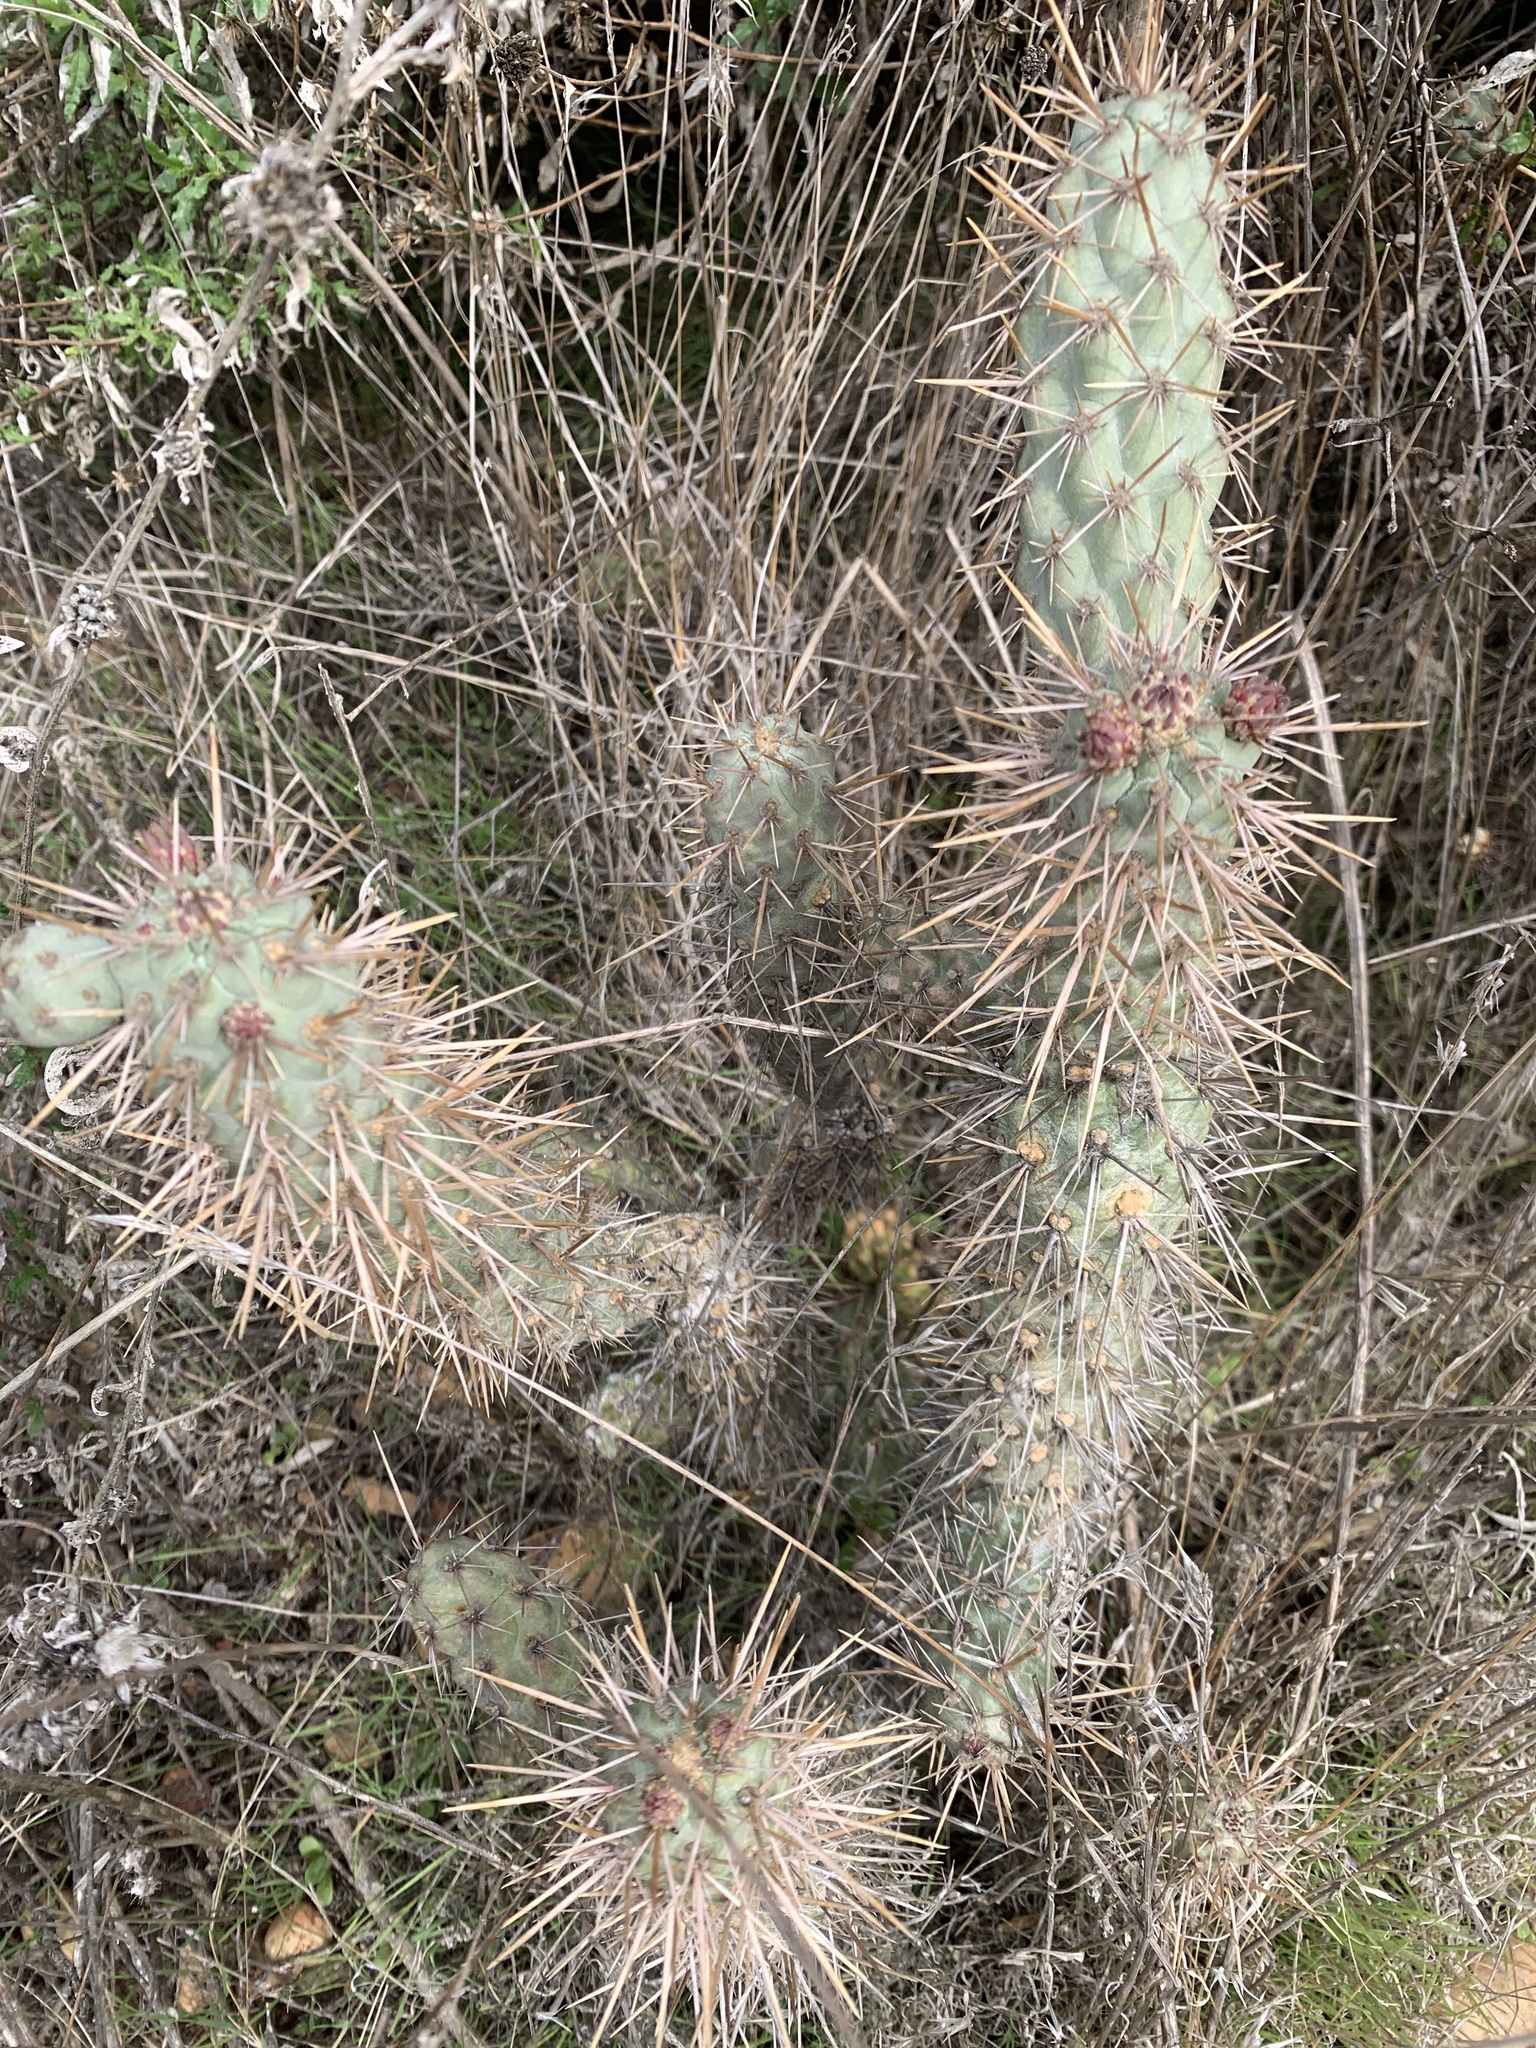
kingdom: Plantae
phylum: Tracheophyta
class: Magnoliopsida
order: Caryophyllales
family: Cactaceae
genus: Cylindropuntia
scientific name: Cylindropuntia prolifera
